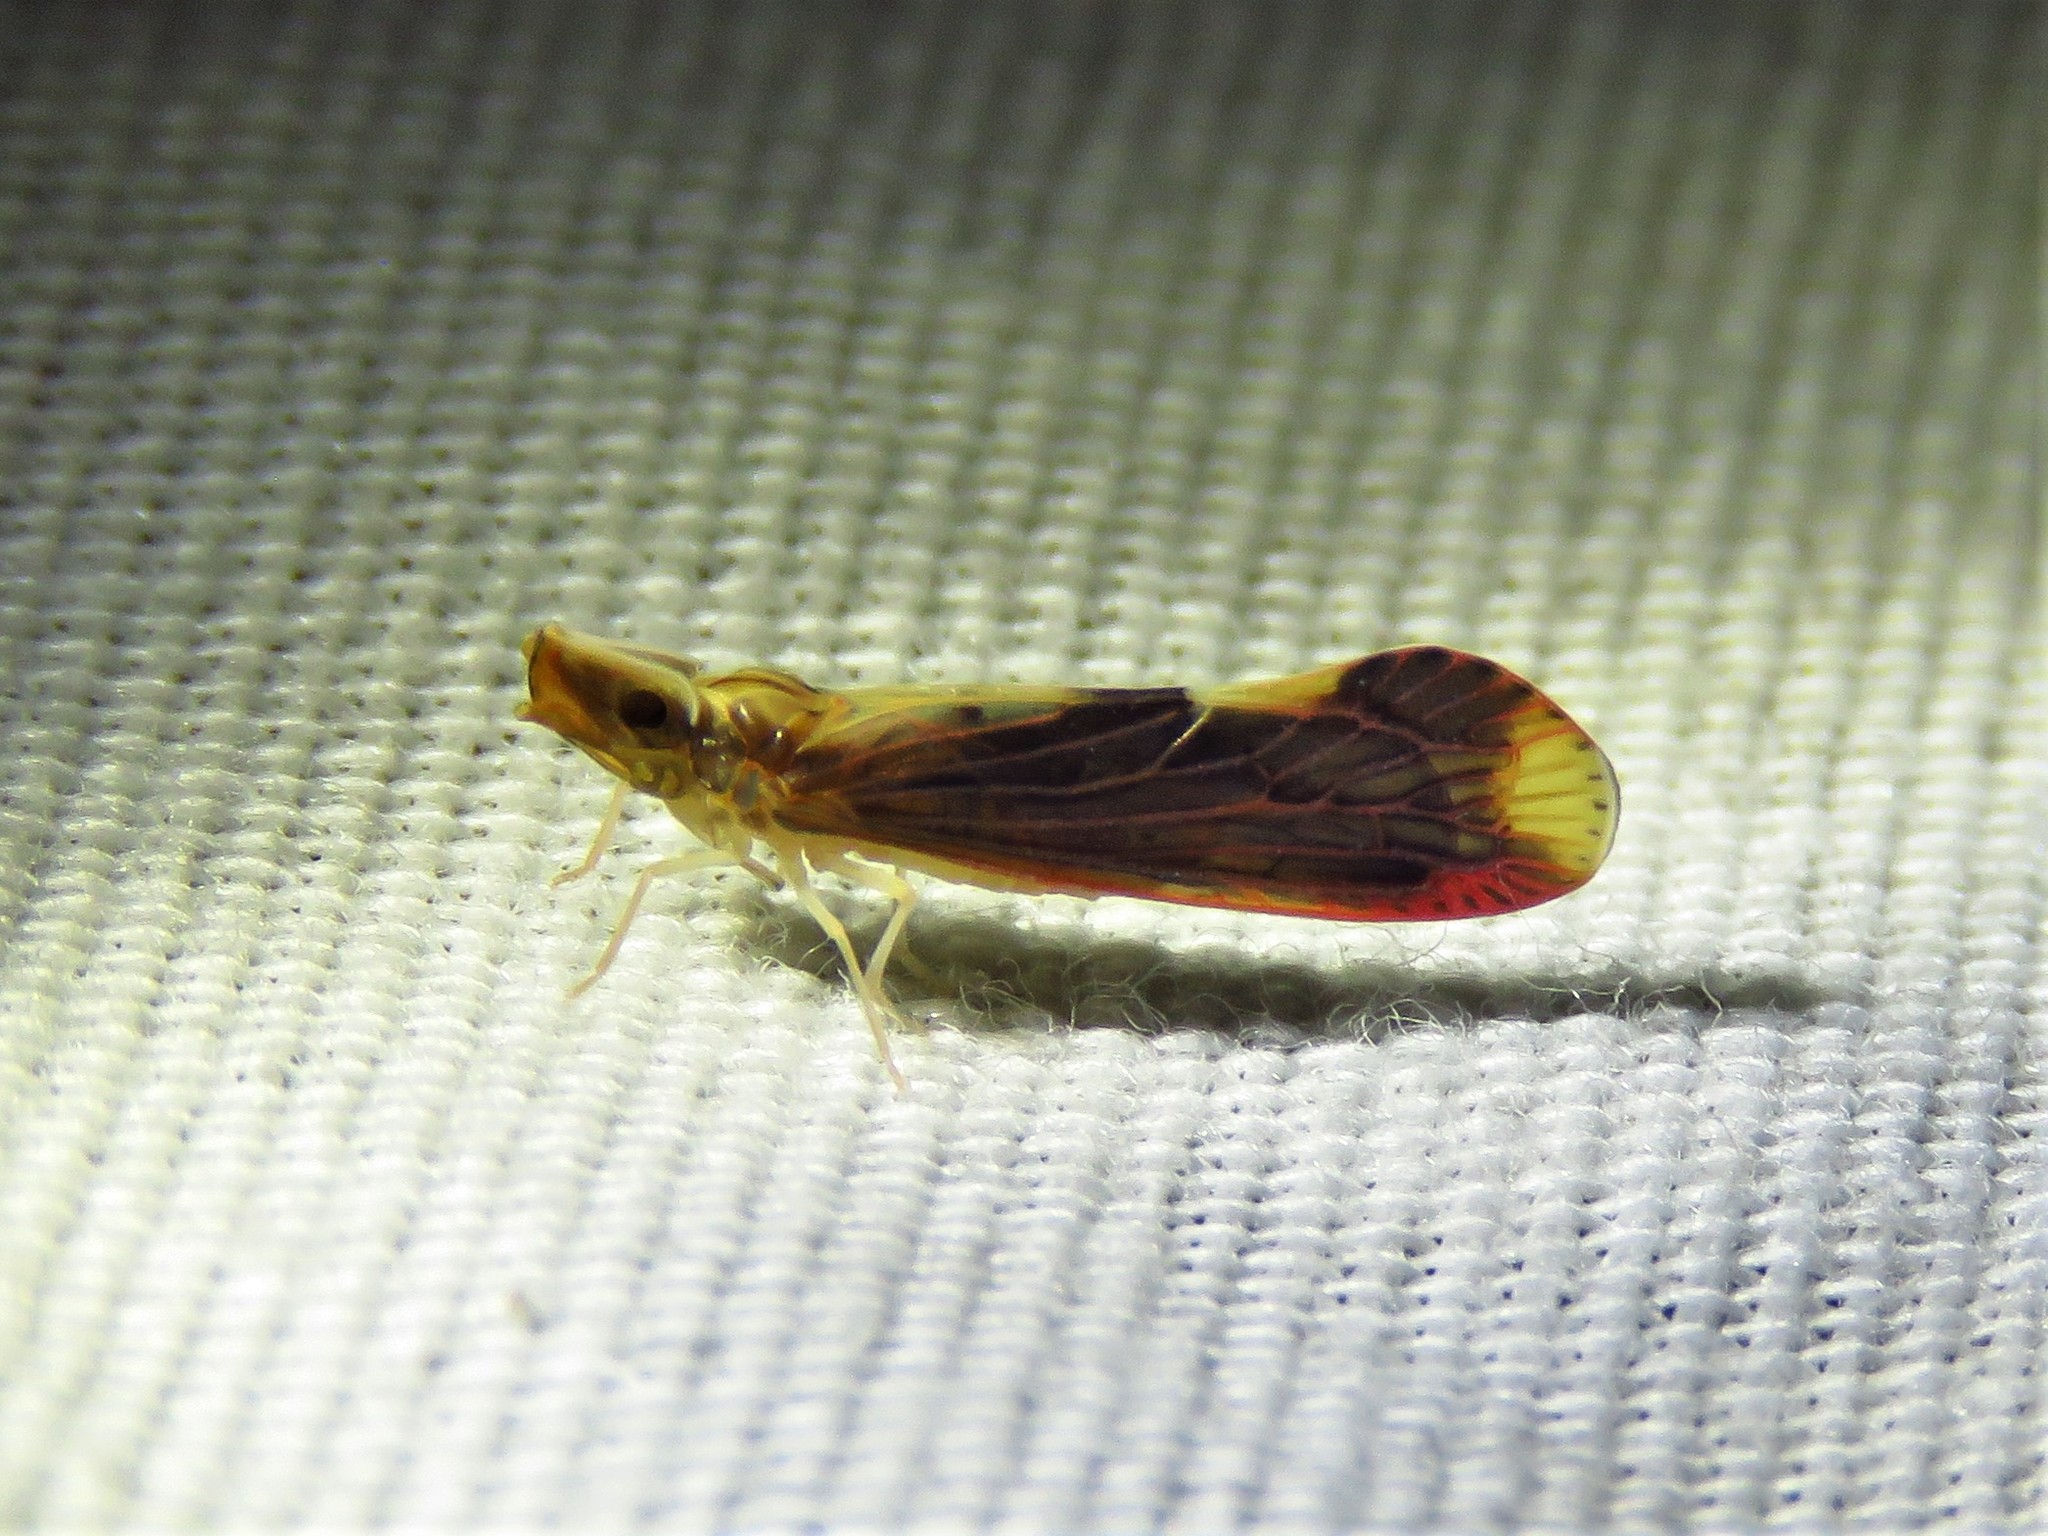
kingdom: Animalia
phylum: Arthropoda
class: Insecta
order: Hemiptera
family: Derbidae
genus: Otiocerus
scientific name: Otiocerus stollii
